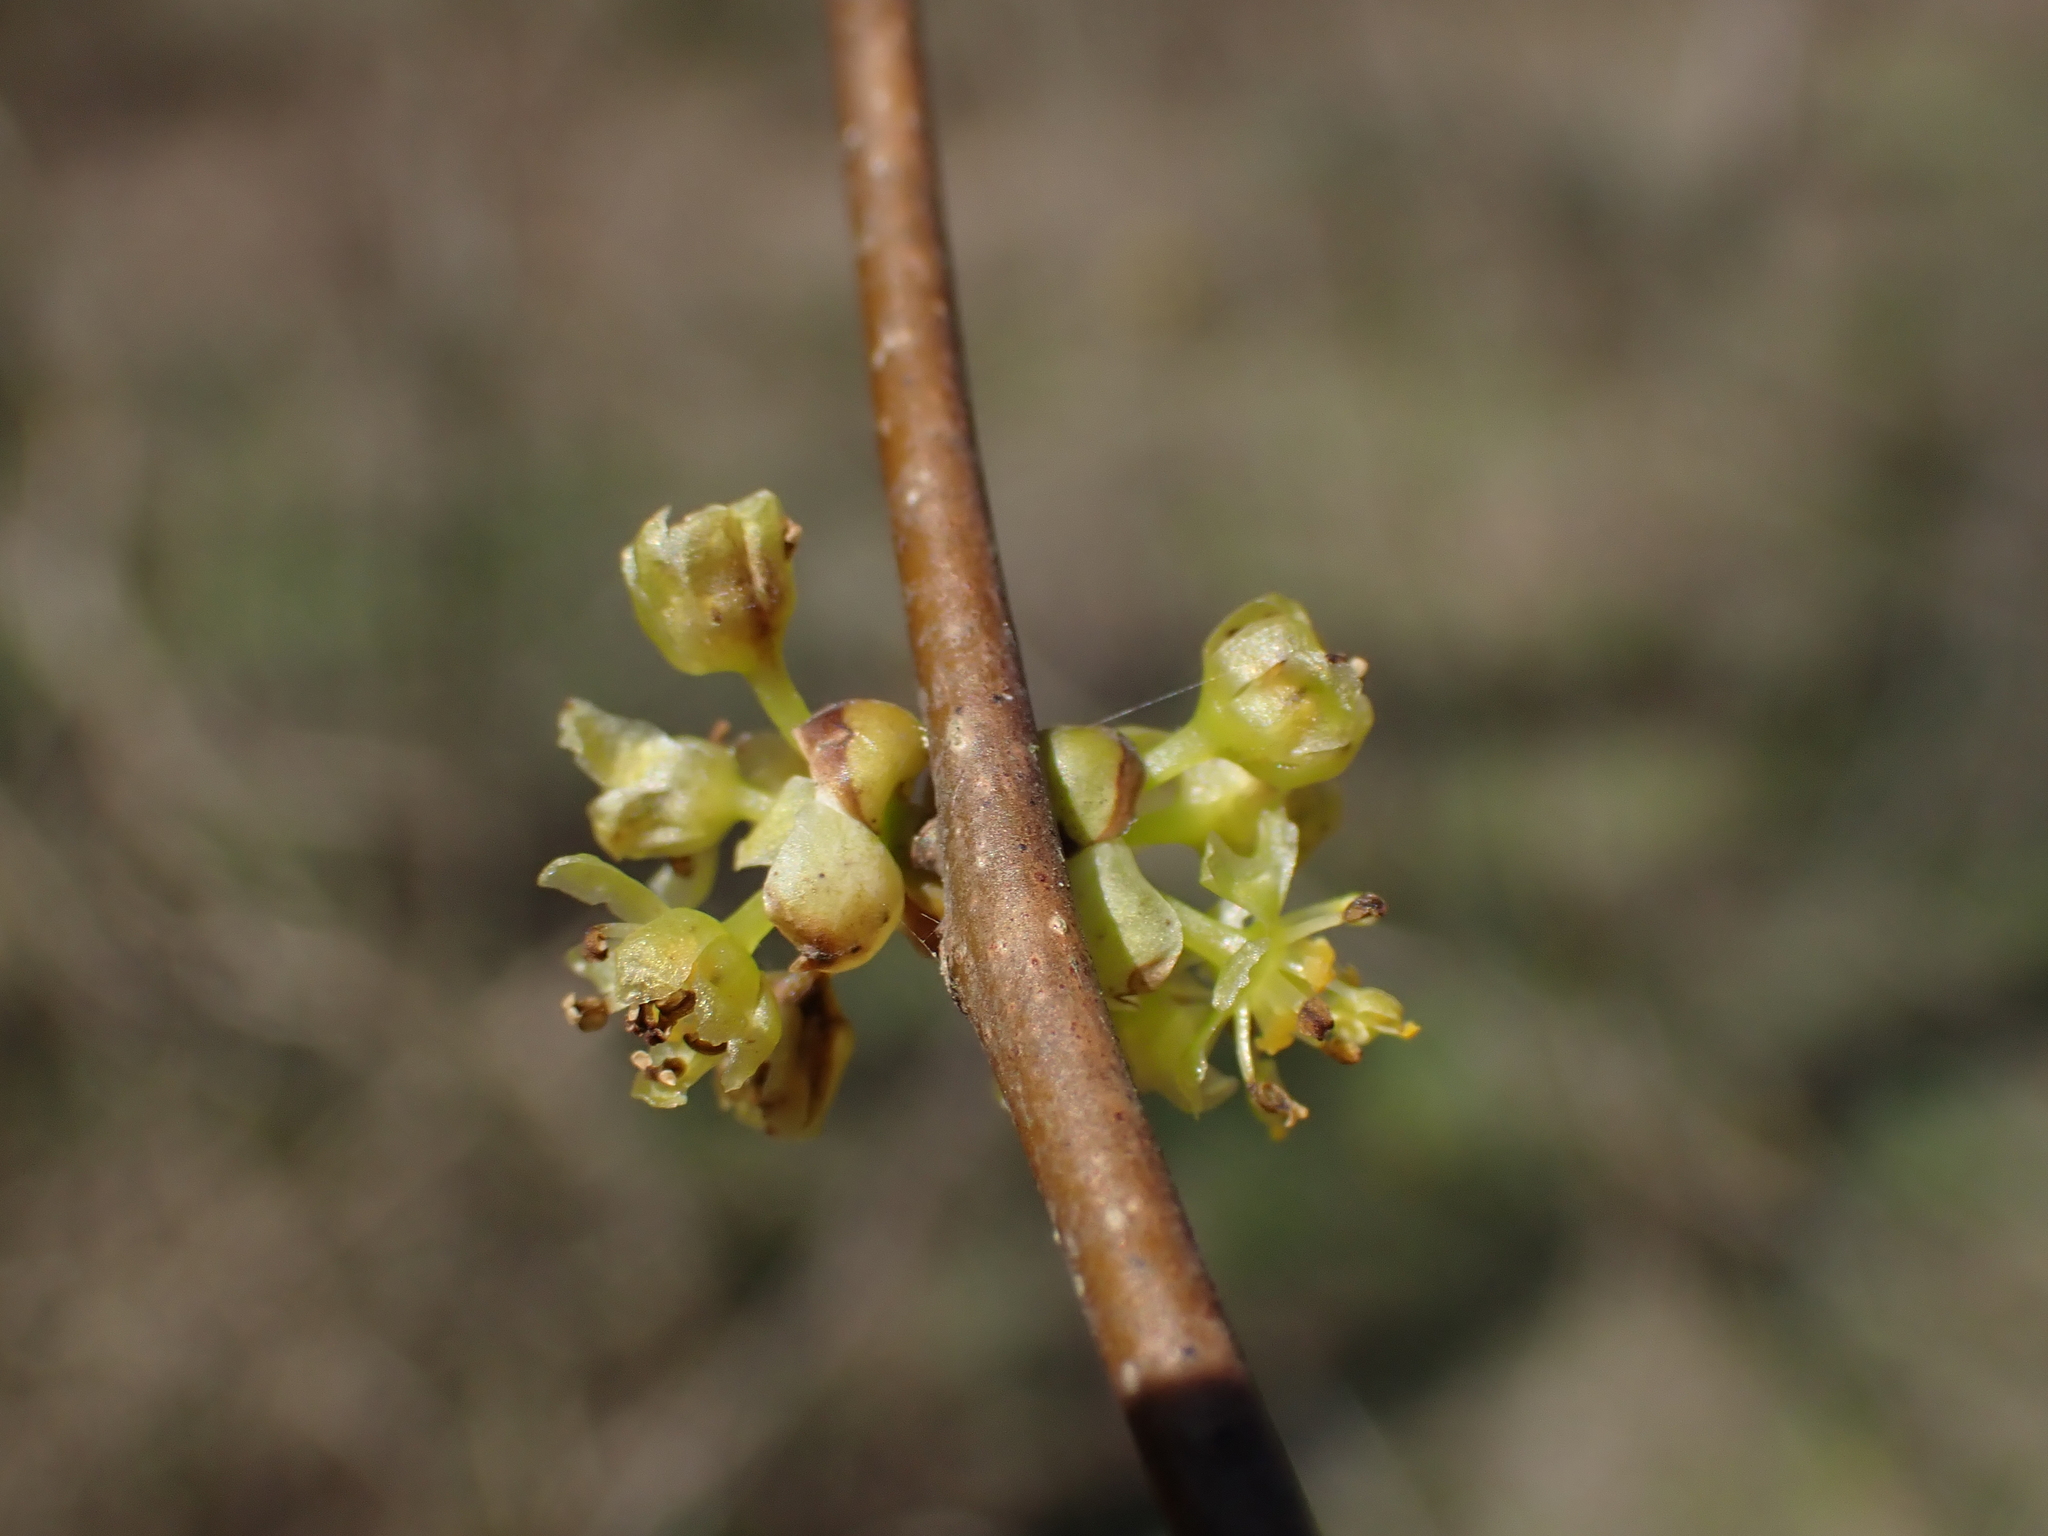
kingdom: Plantae
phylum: Tracheophyta
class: Magnoliopsida
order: Laurales
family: Lauraceae
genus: Lindera
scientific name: Lindera benzoin
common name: Spicebush
